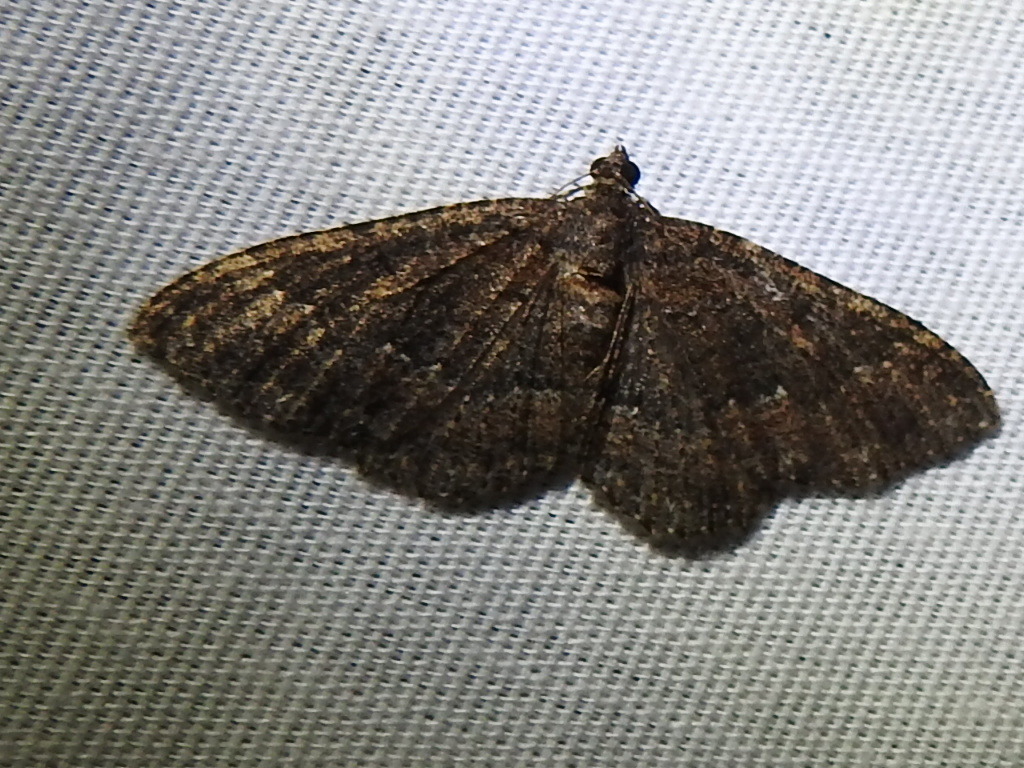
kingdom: Animalia
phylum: Arthropoda
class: Insecta
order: Lepidoptera
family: Geometridae
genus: Disclisioprocta
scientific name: Disclisioprocta stellata
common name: Somber carpet
